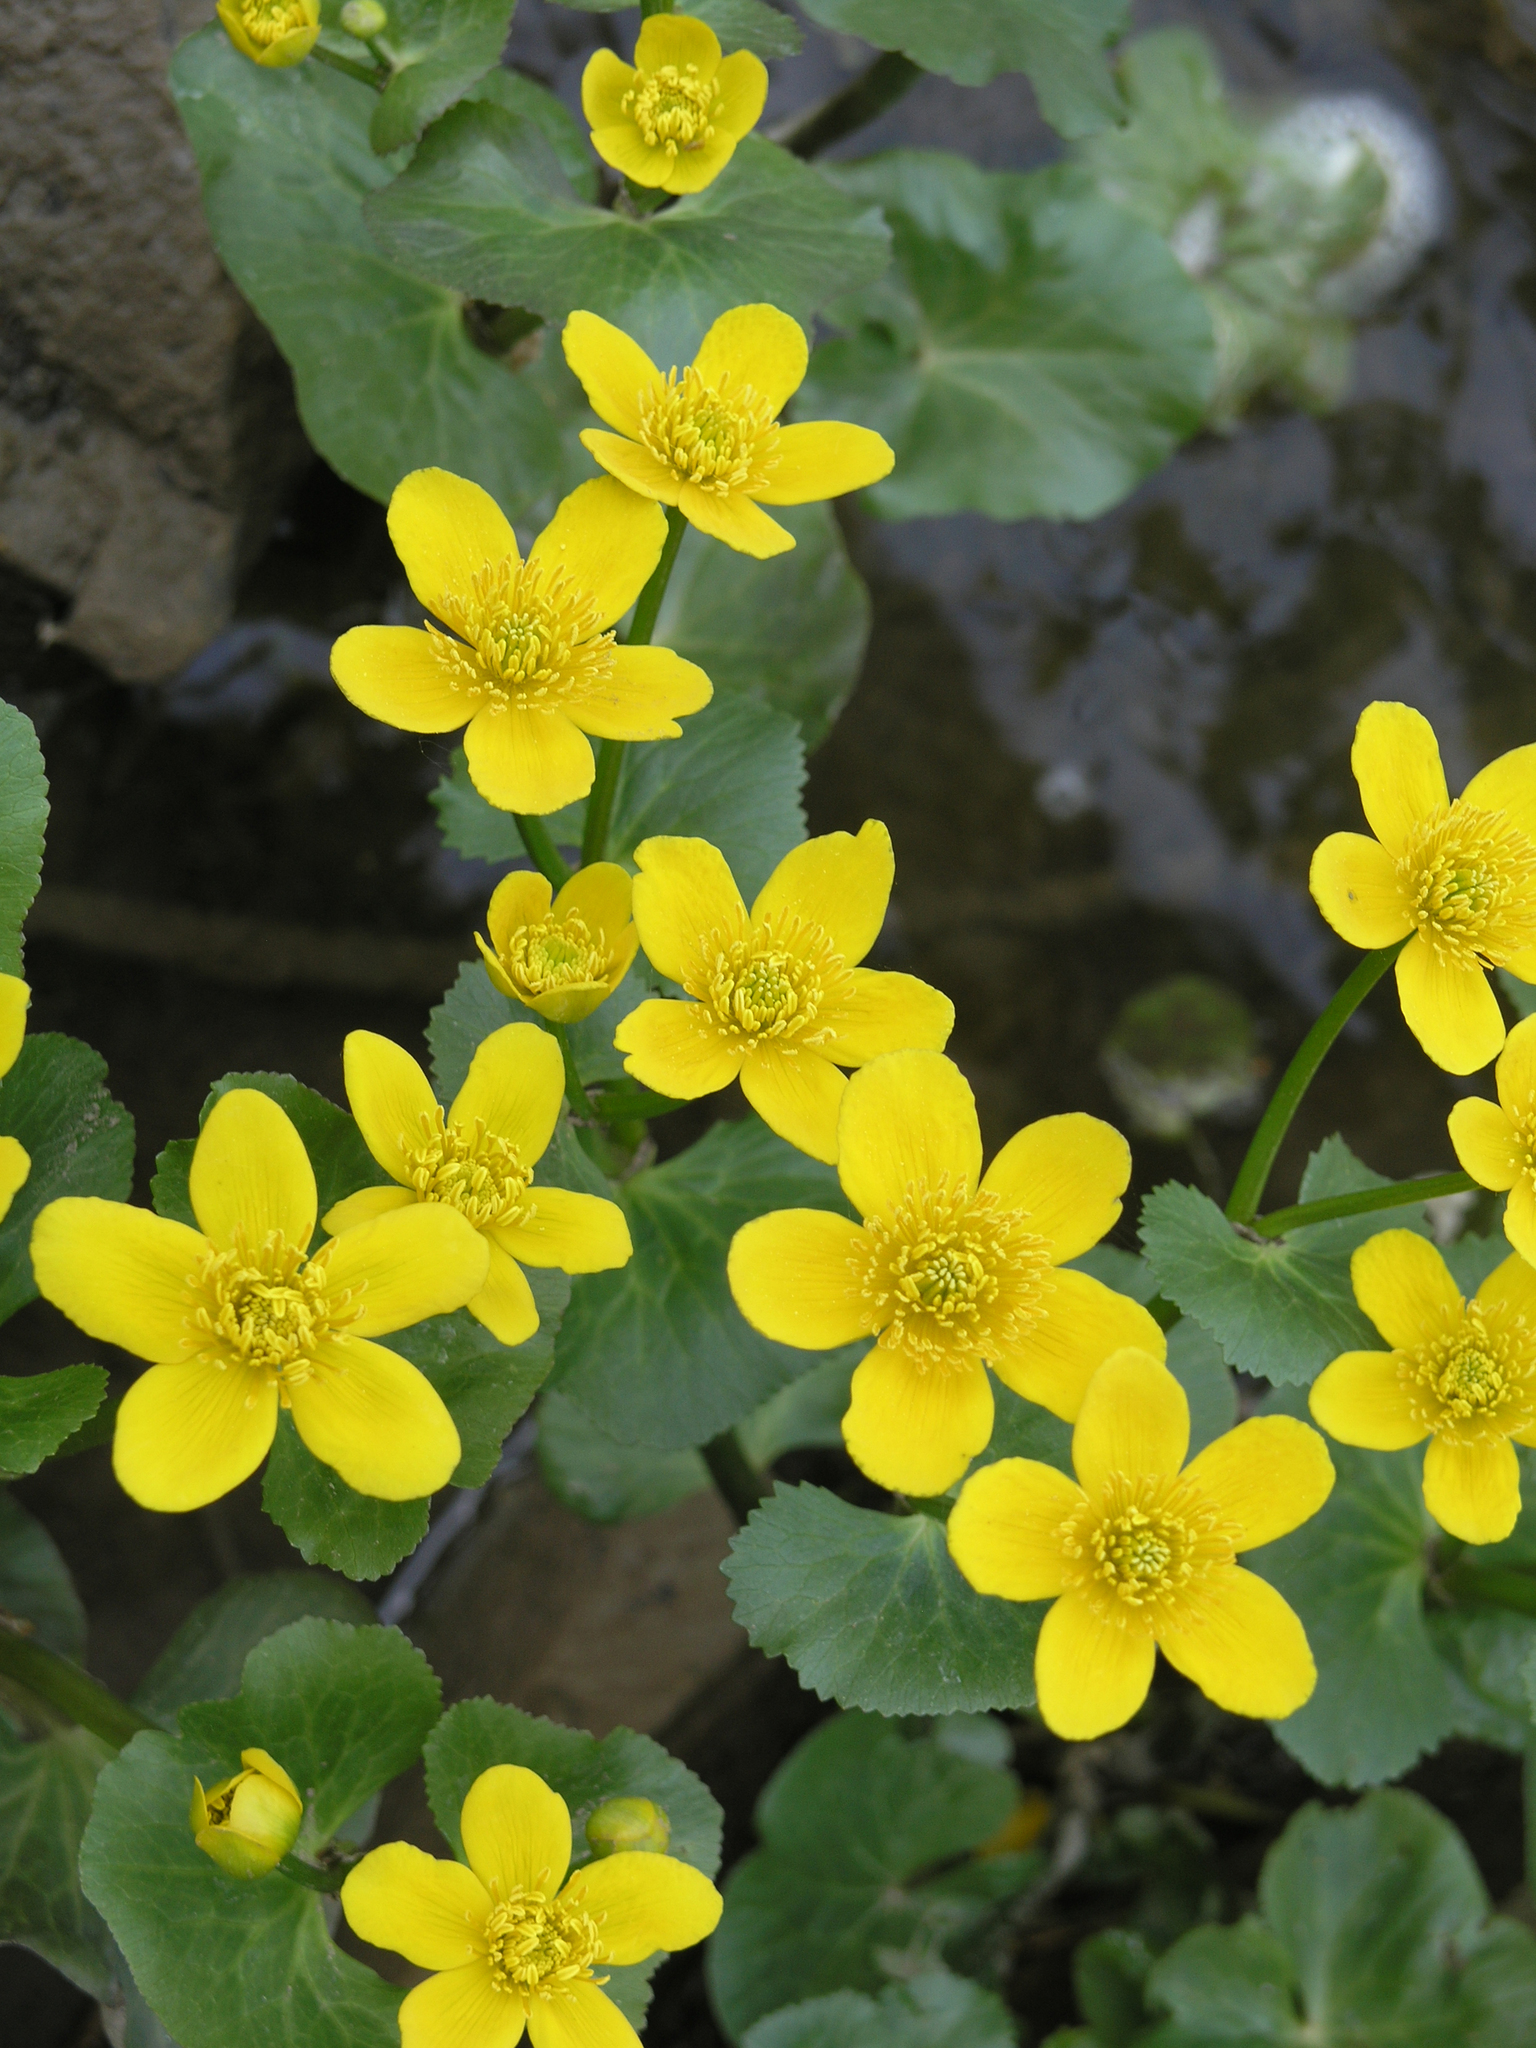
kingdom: Plantae
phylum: Tracheophyta
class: Magnoliopsida
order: Ranunculales
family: Ranunculaceae
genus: Caltha
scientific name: Caltha palustris
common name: Marsh marigold
